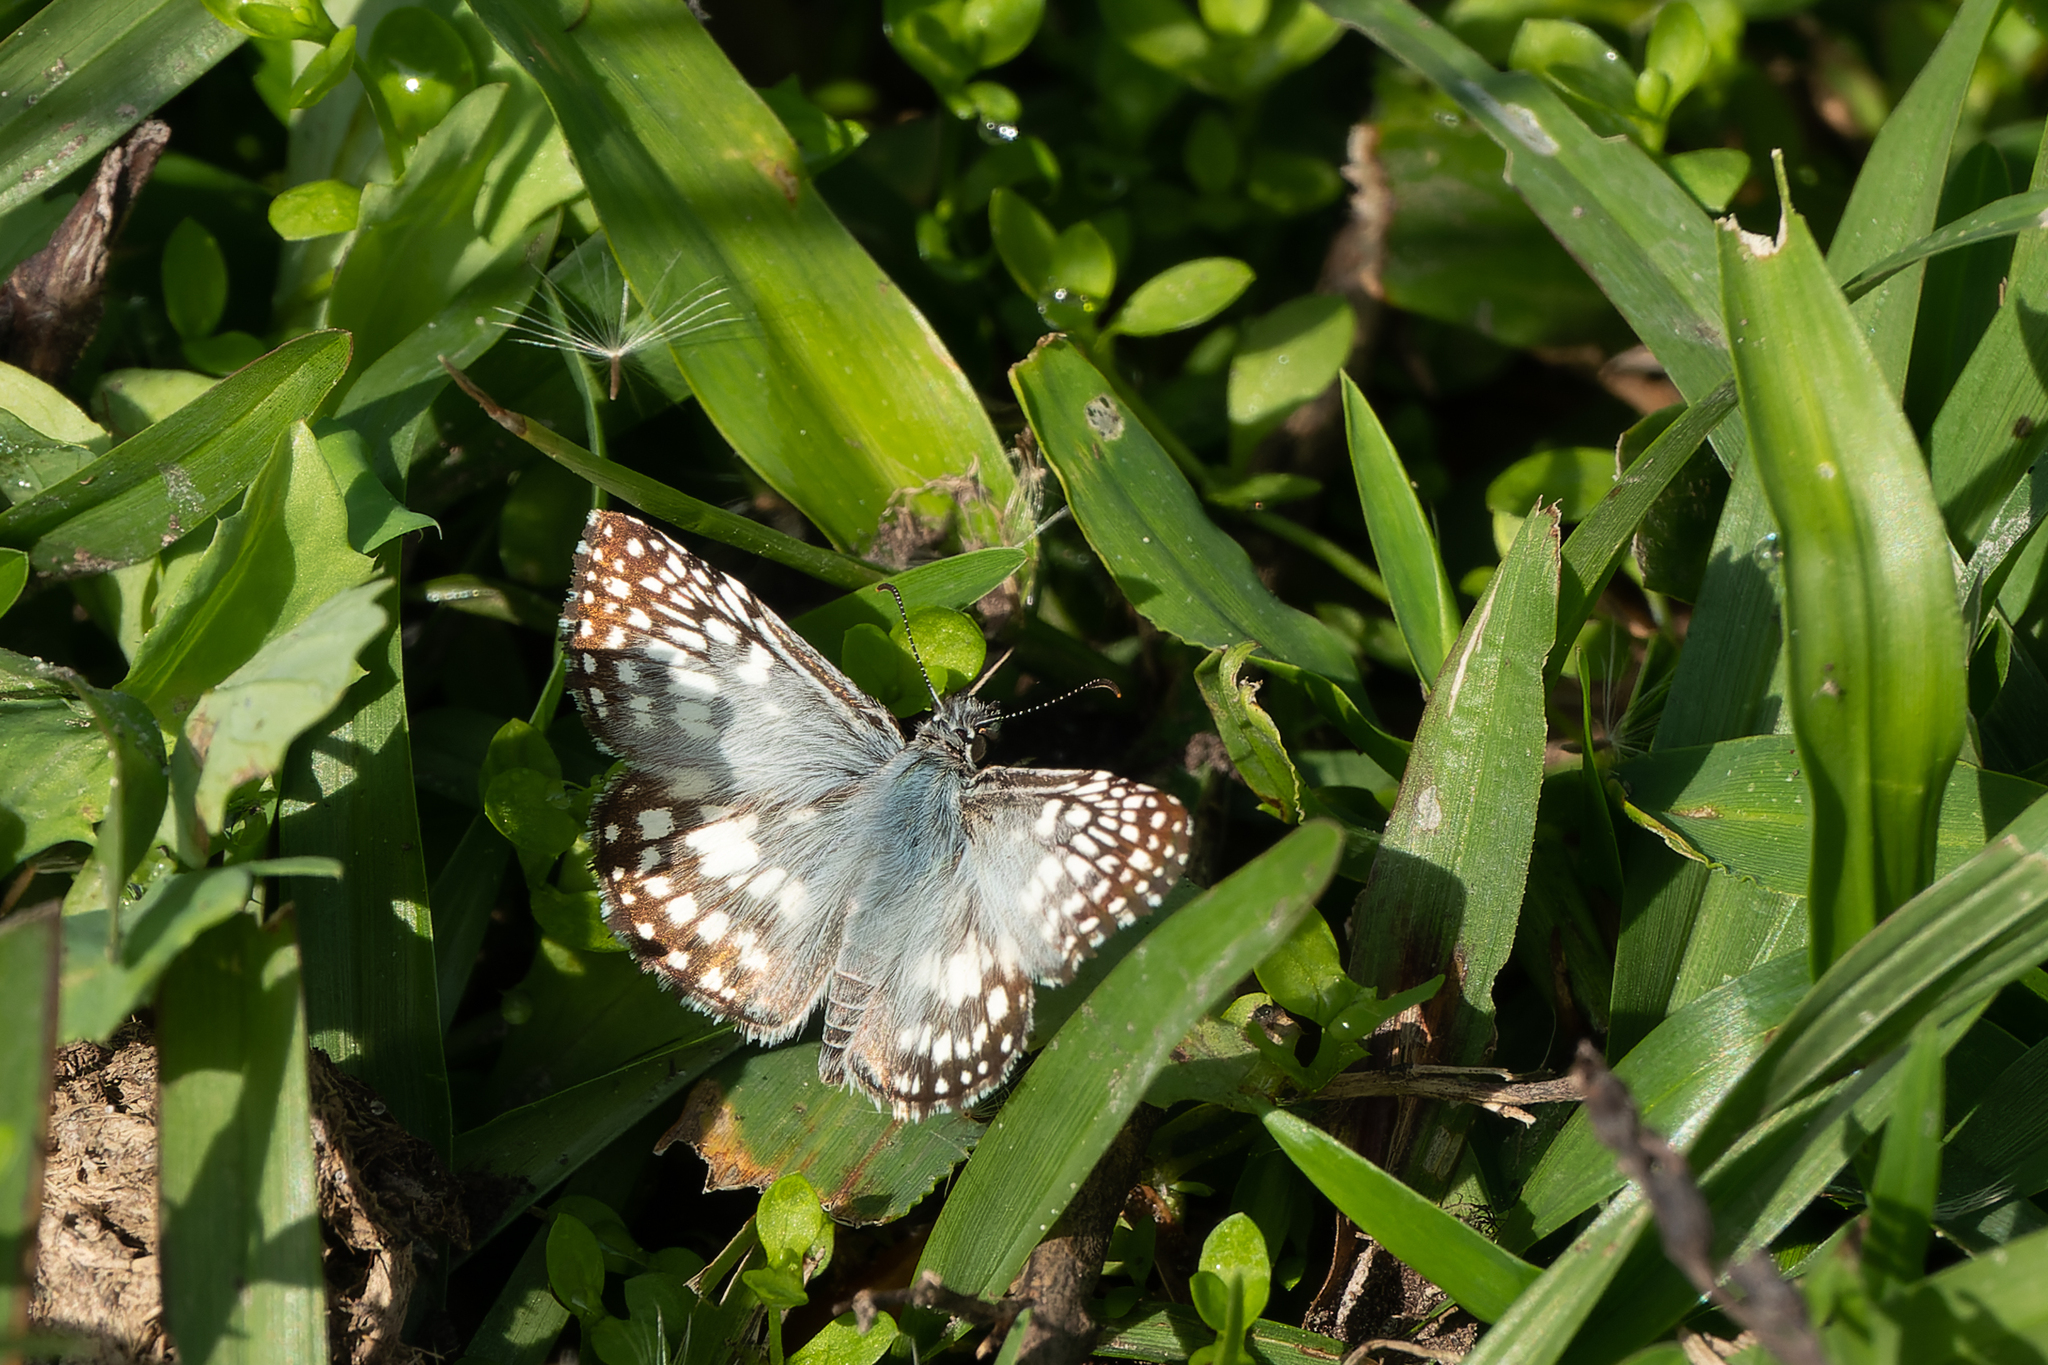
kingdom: Animalia
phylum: Arthropoda
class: Insecta
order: Lepidoptera
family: Hesperiidae
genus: Pyrgus
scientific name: Pyrgus oileus
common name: Tropical checkered-skipper
